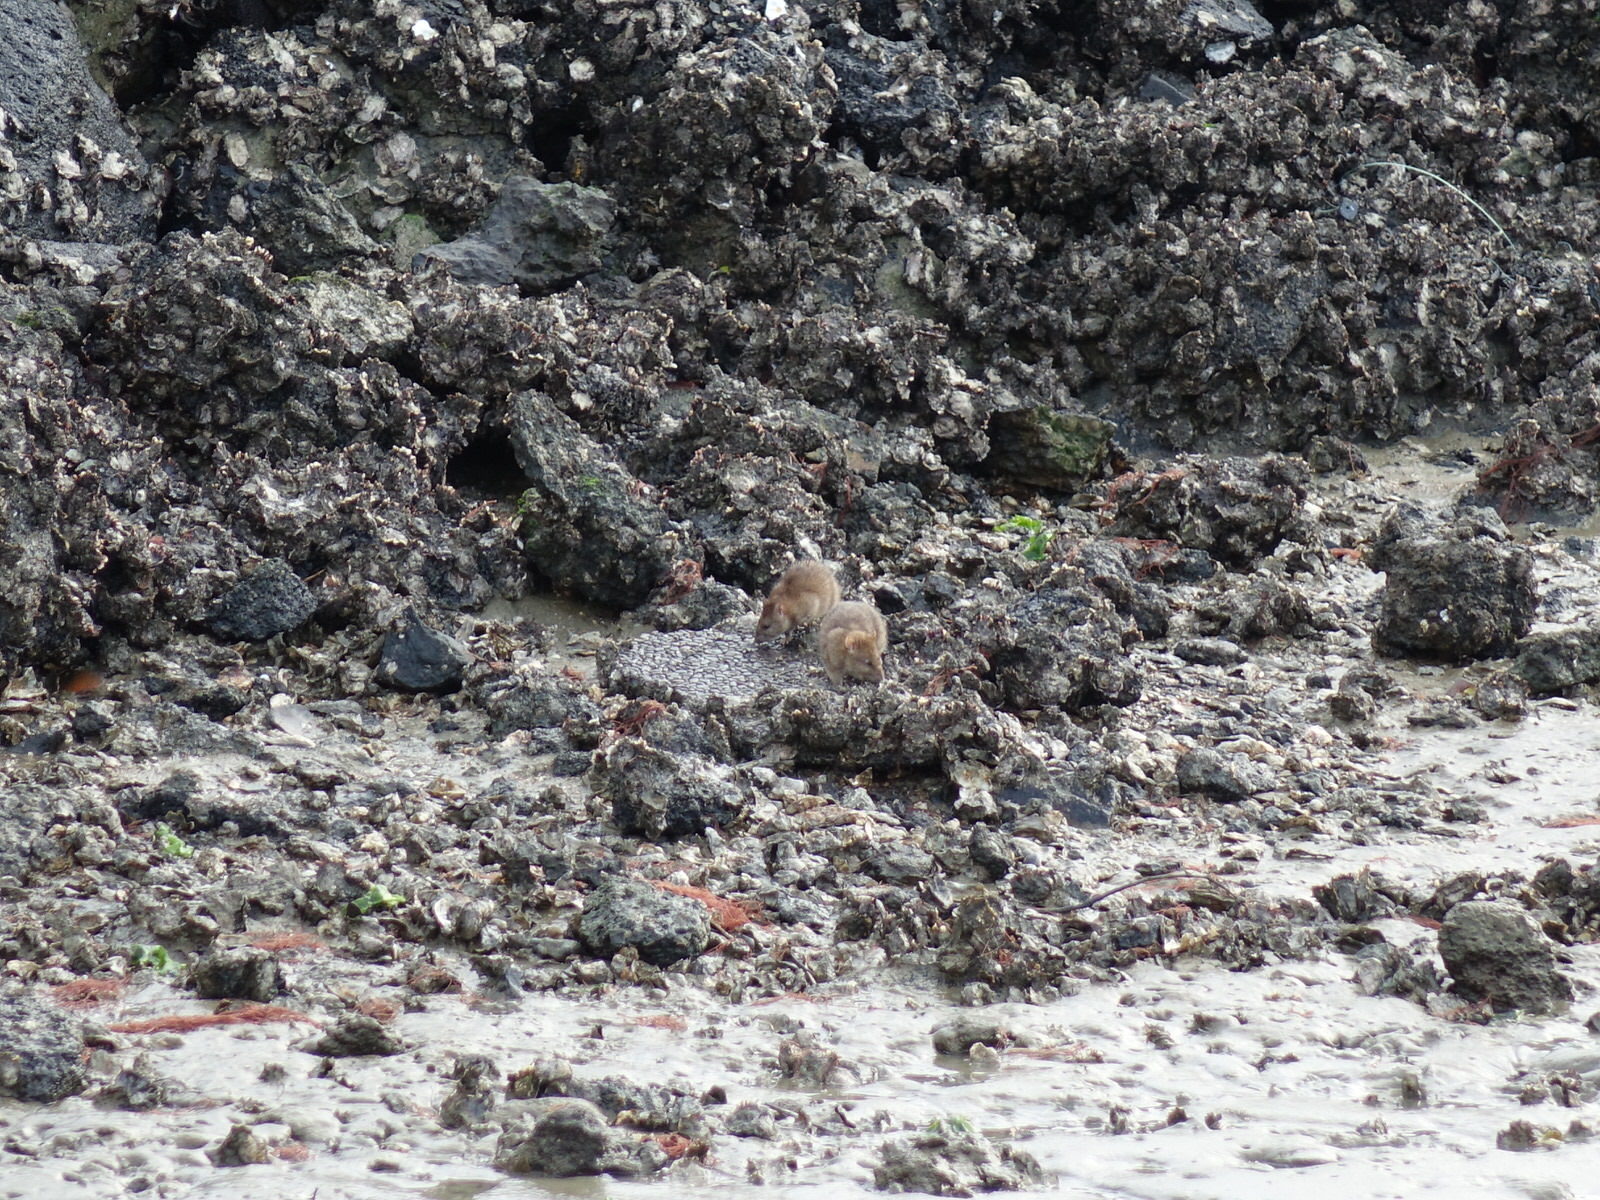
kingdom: Animalia
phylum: Chordata
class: Mammalia
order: Rodentia
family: Muridae
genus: Rattus
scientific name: Rattus norvegicus
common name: Brown rat
